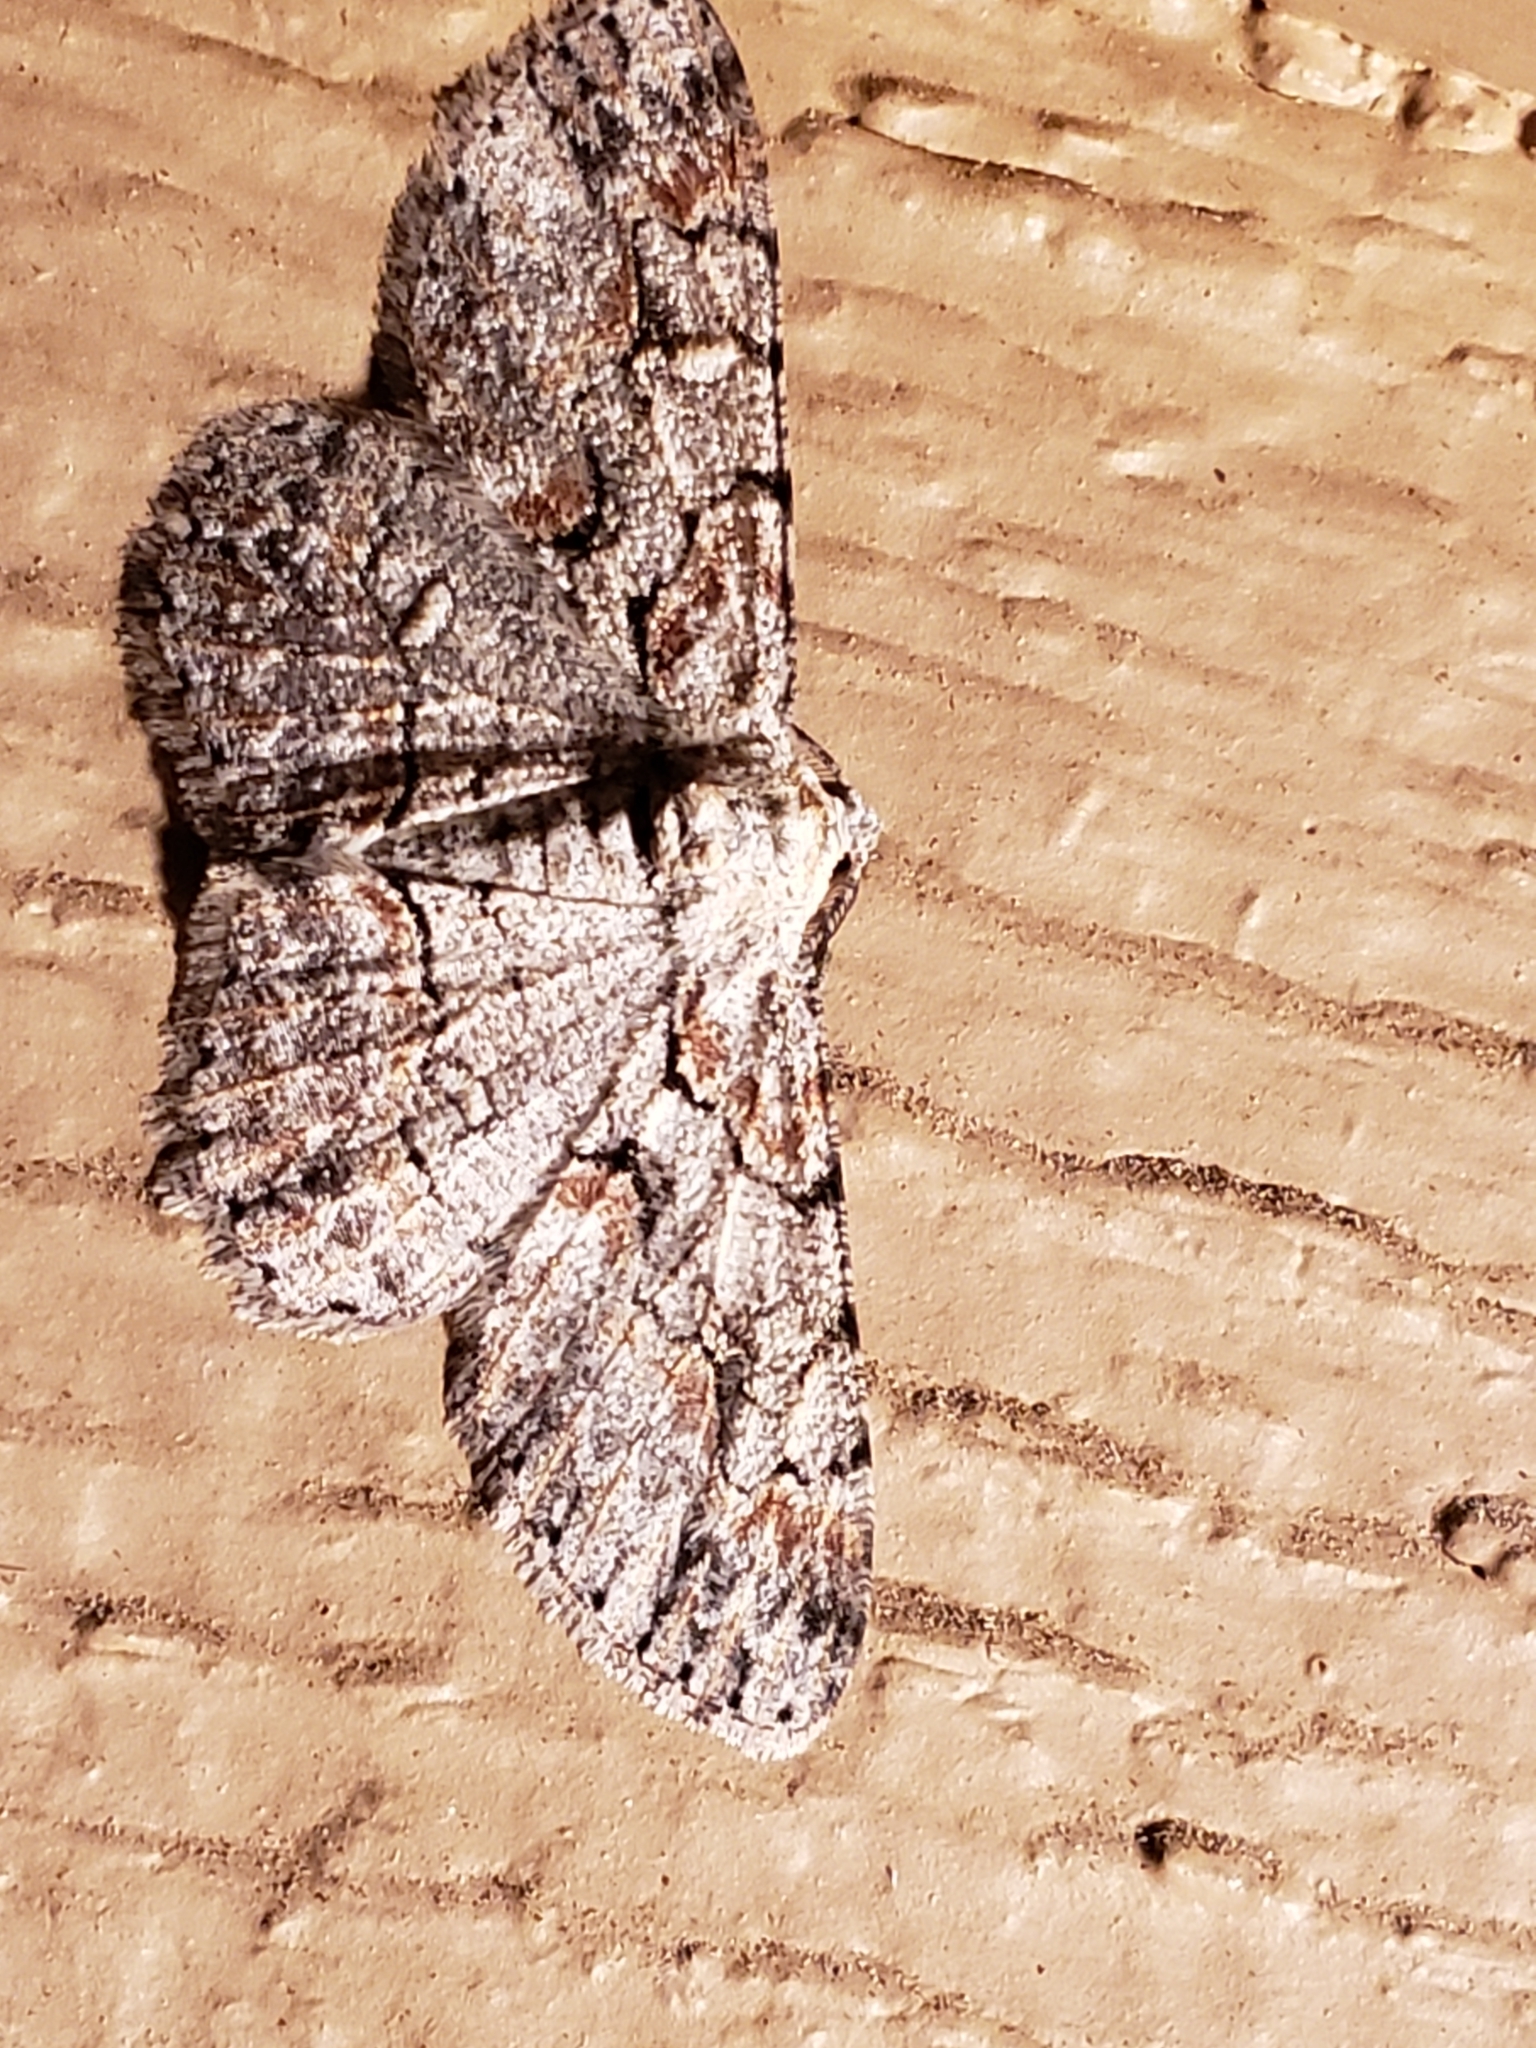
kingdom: Animalia
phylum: Arthropoda
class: Insecta
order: Lepidoptera
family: Geometridae
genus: Iridopsis
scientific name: Iridopsis defectaria
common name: Brown-shaded gray
